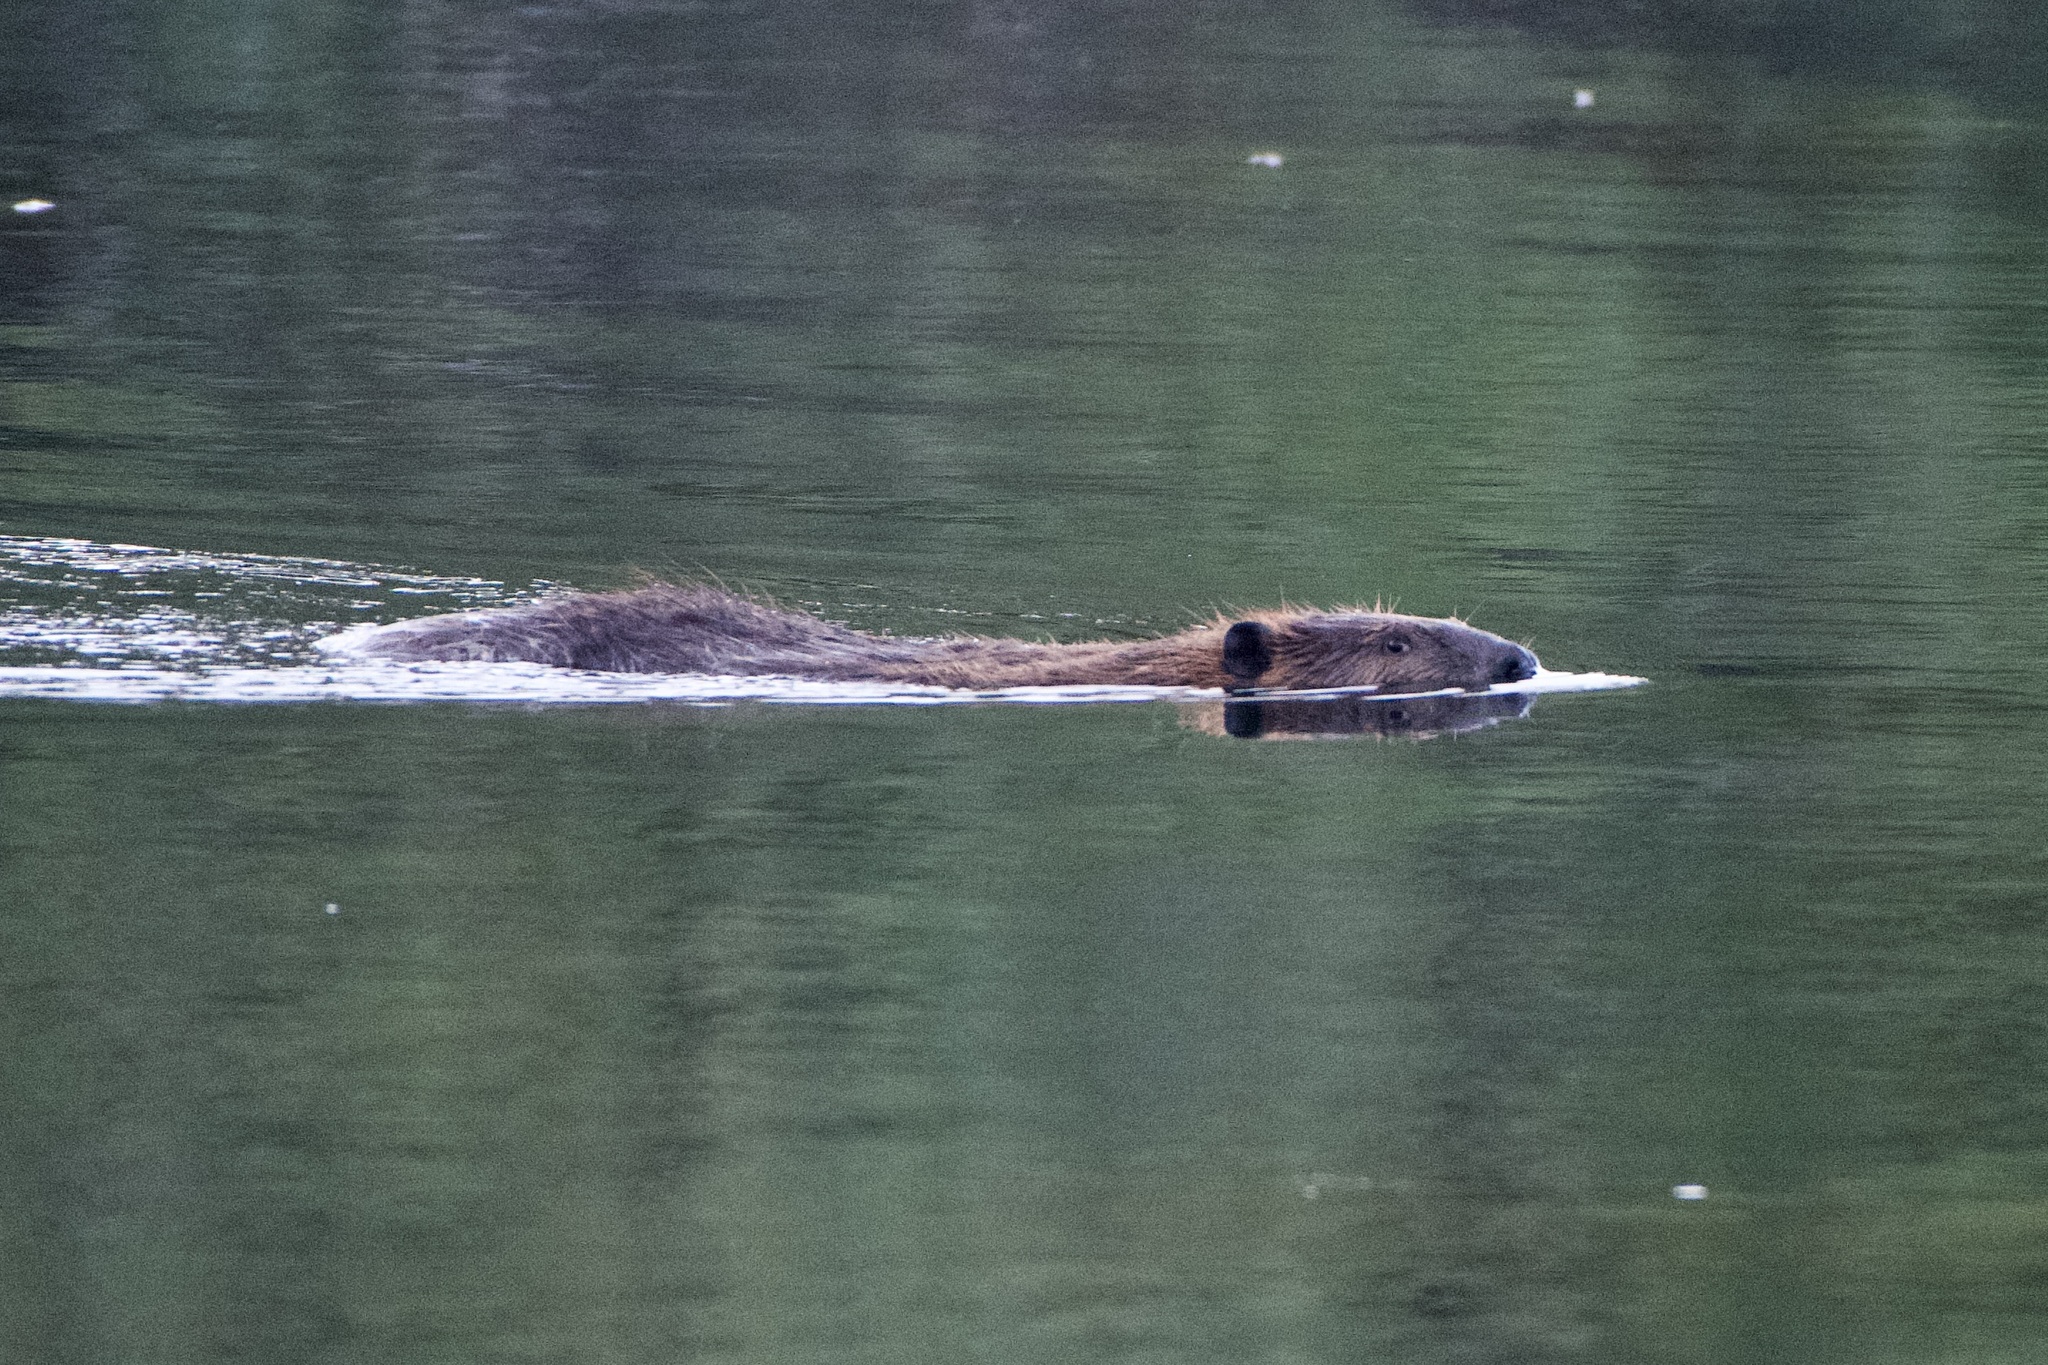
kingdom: Animalia
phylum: Chordata
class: Mammalia
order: Rodentia
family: Castoridae
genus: Castor
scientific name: Castor canadensis
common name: American beaver
